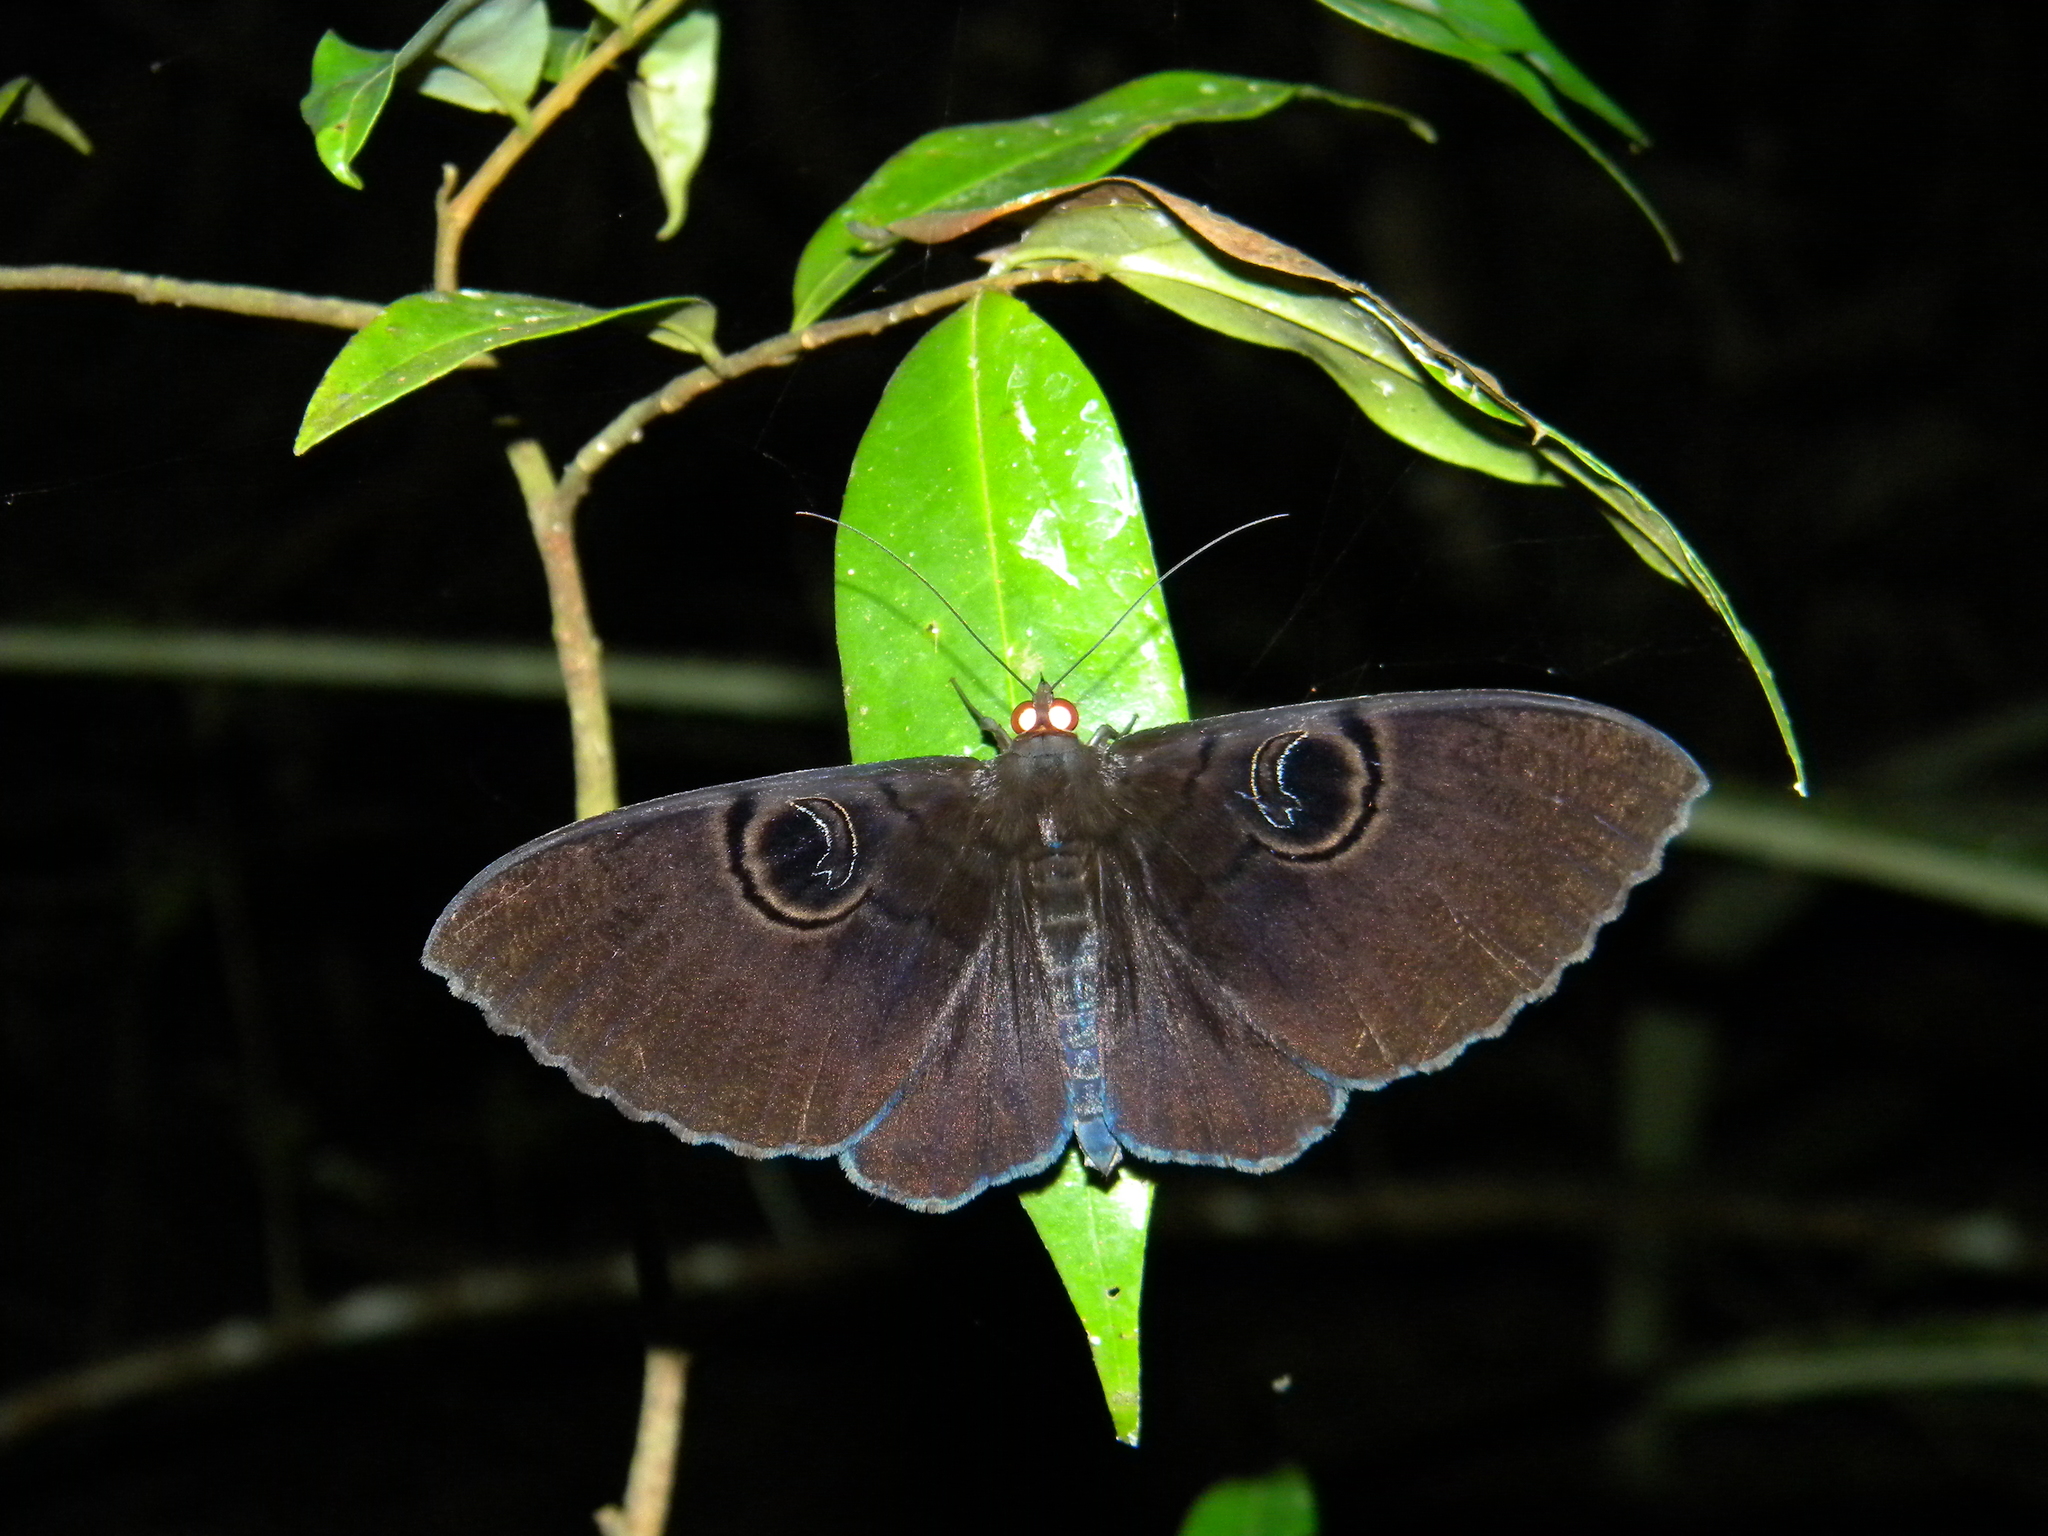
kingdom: Animalia
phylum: Arthropoda
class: Insecta
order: Lepidoptera
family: Erebidae
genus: Erebus
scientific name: Erebus caprimulgus
